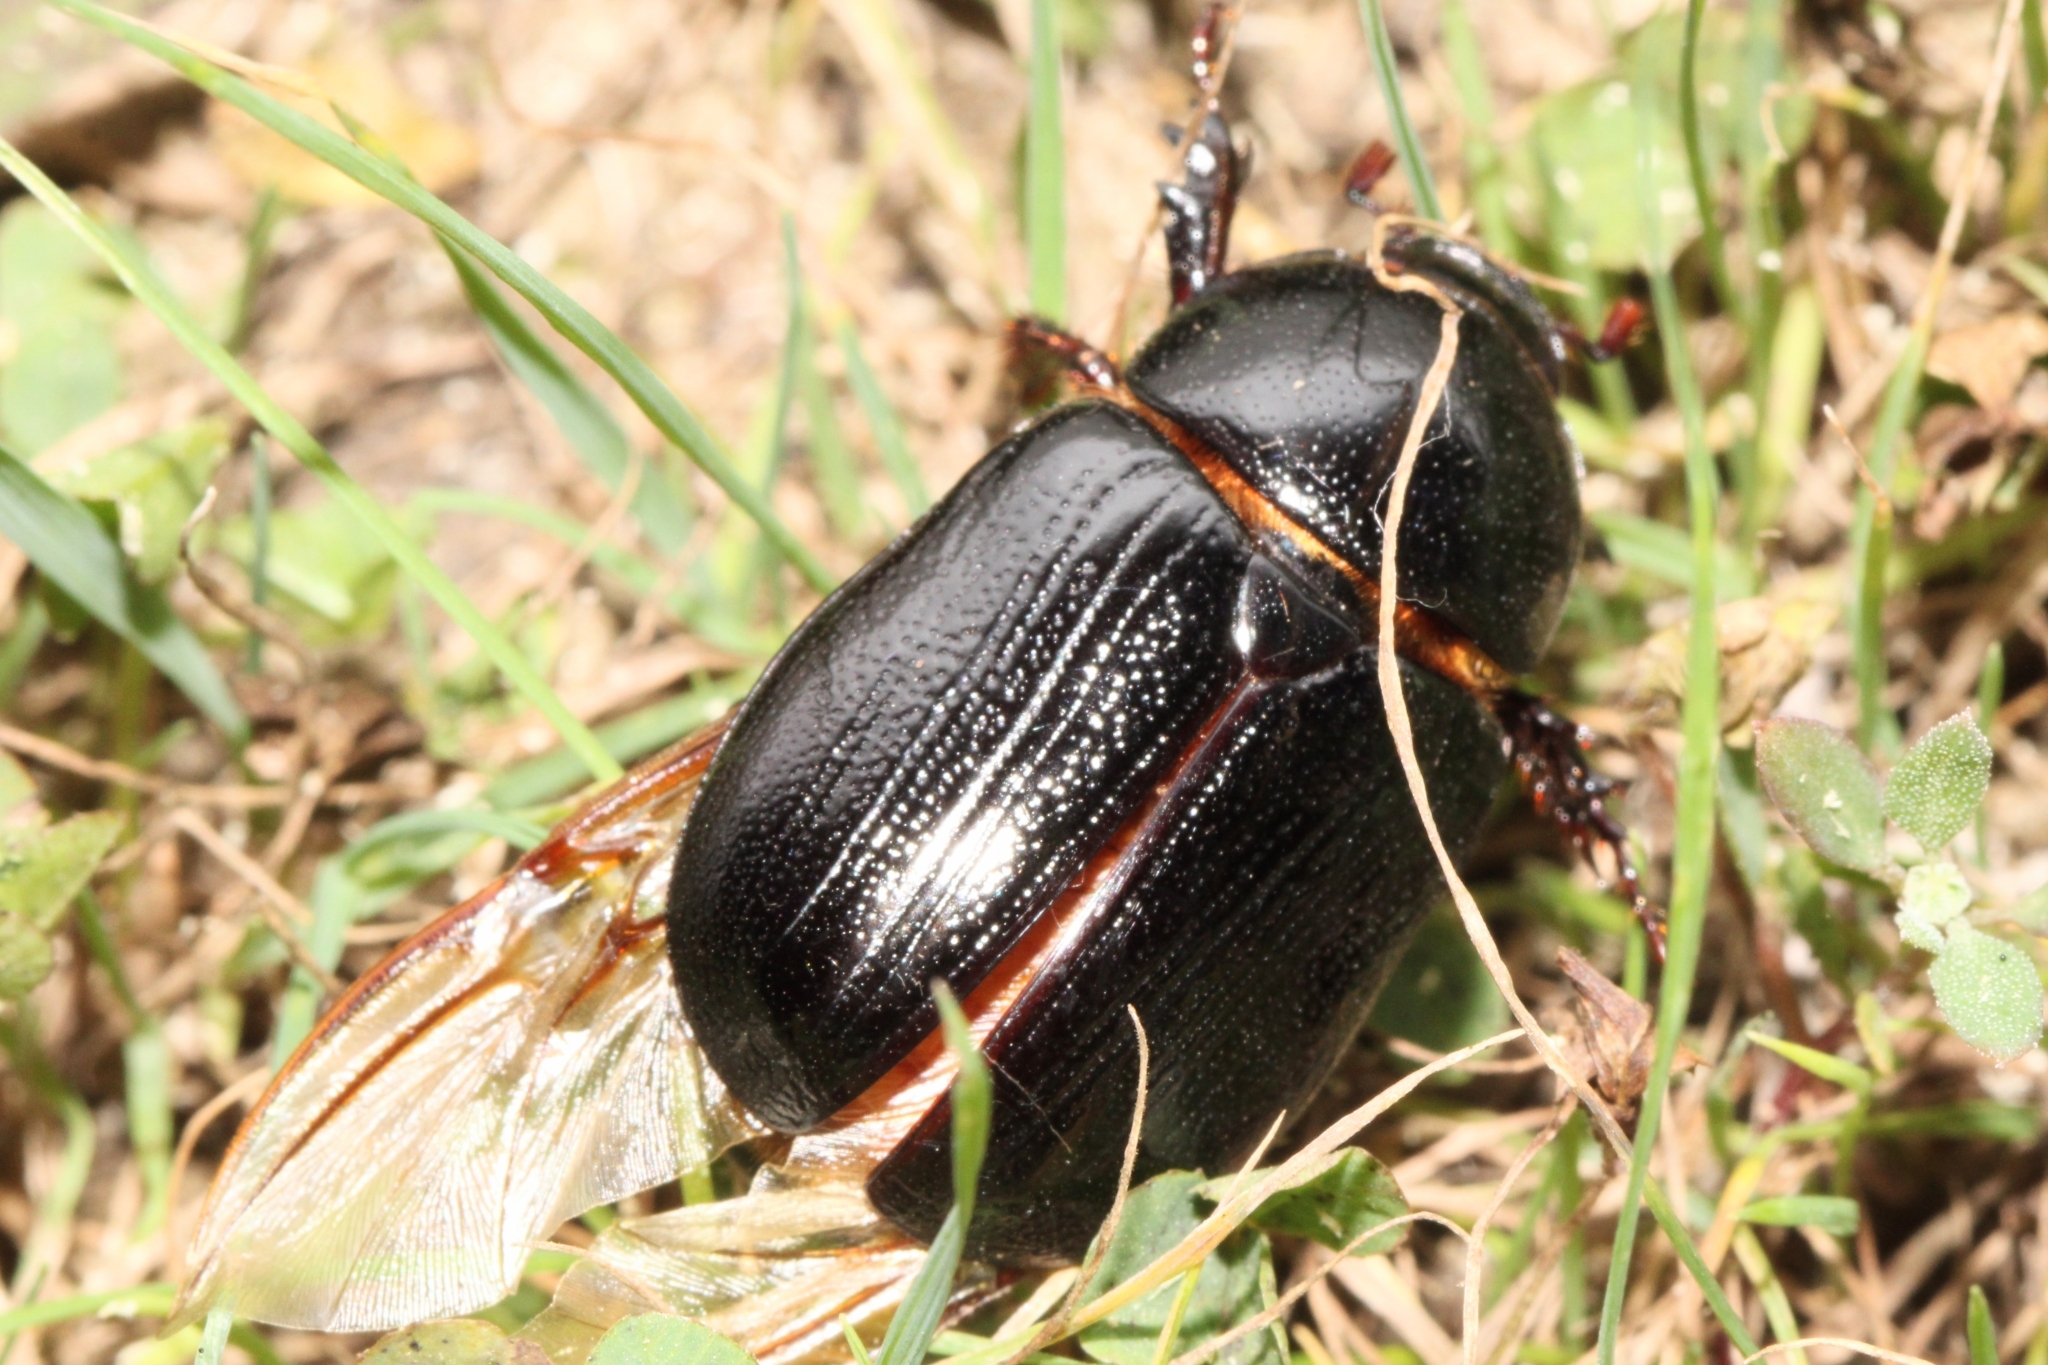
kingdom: Animalia
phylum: Arthropoda
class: Insecta
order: Coleoptera
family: Scarabaeidae
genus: Ligyrus
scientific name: Ligyrus relictus
